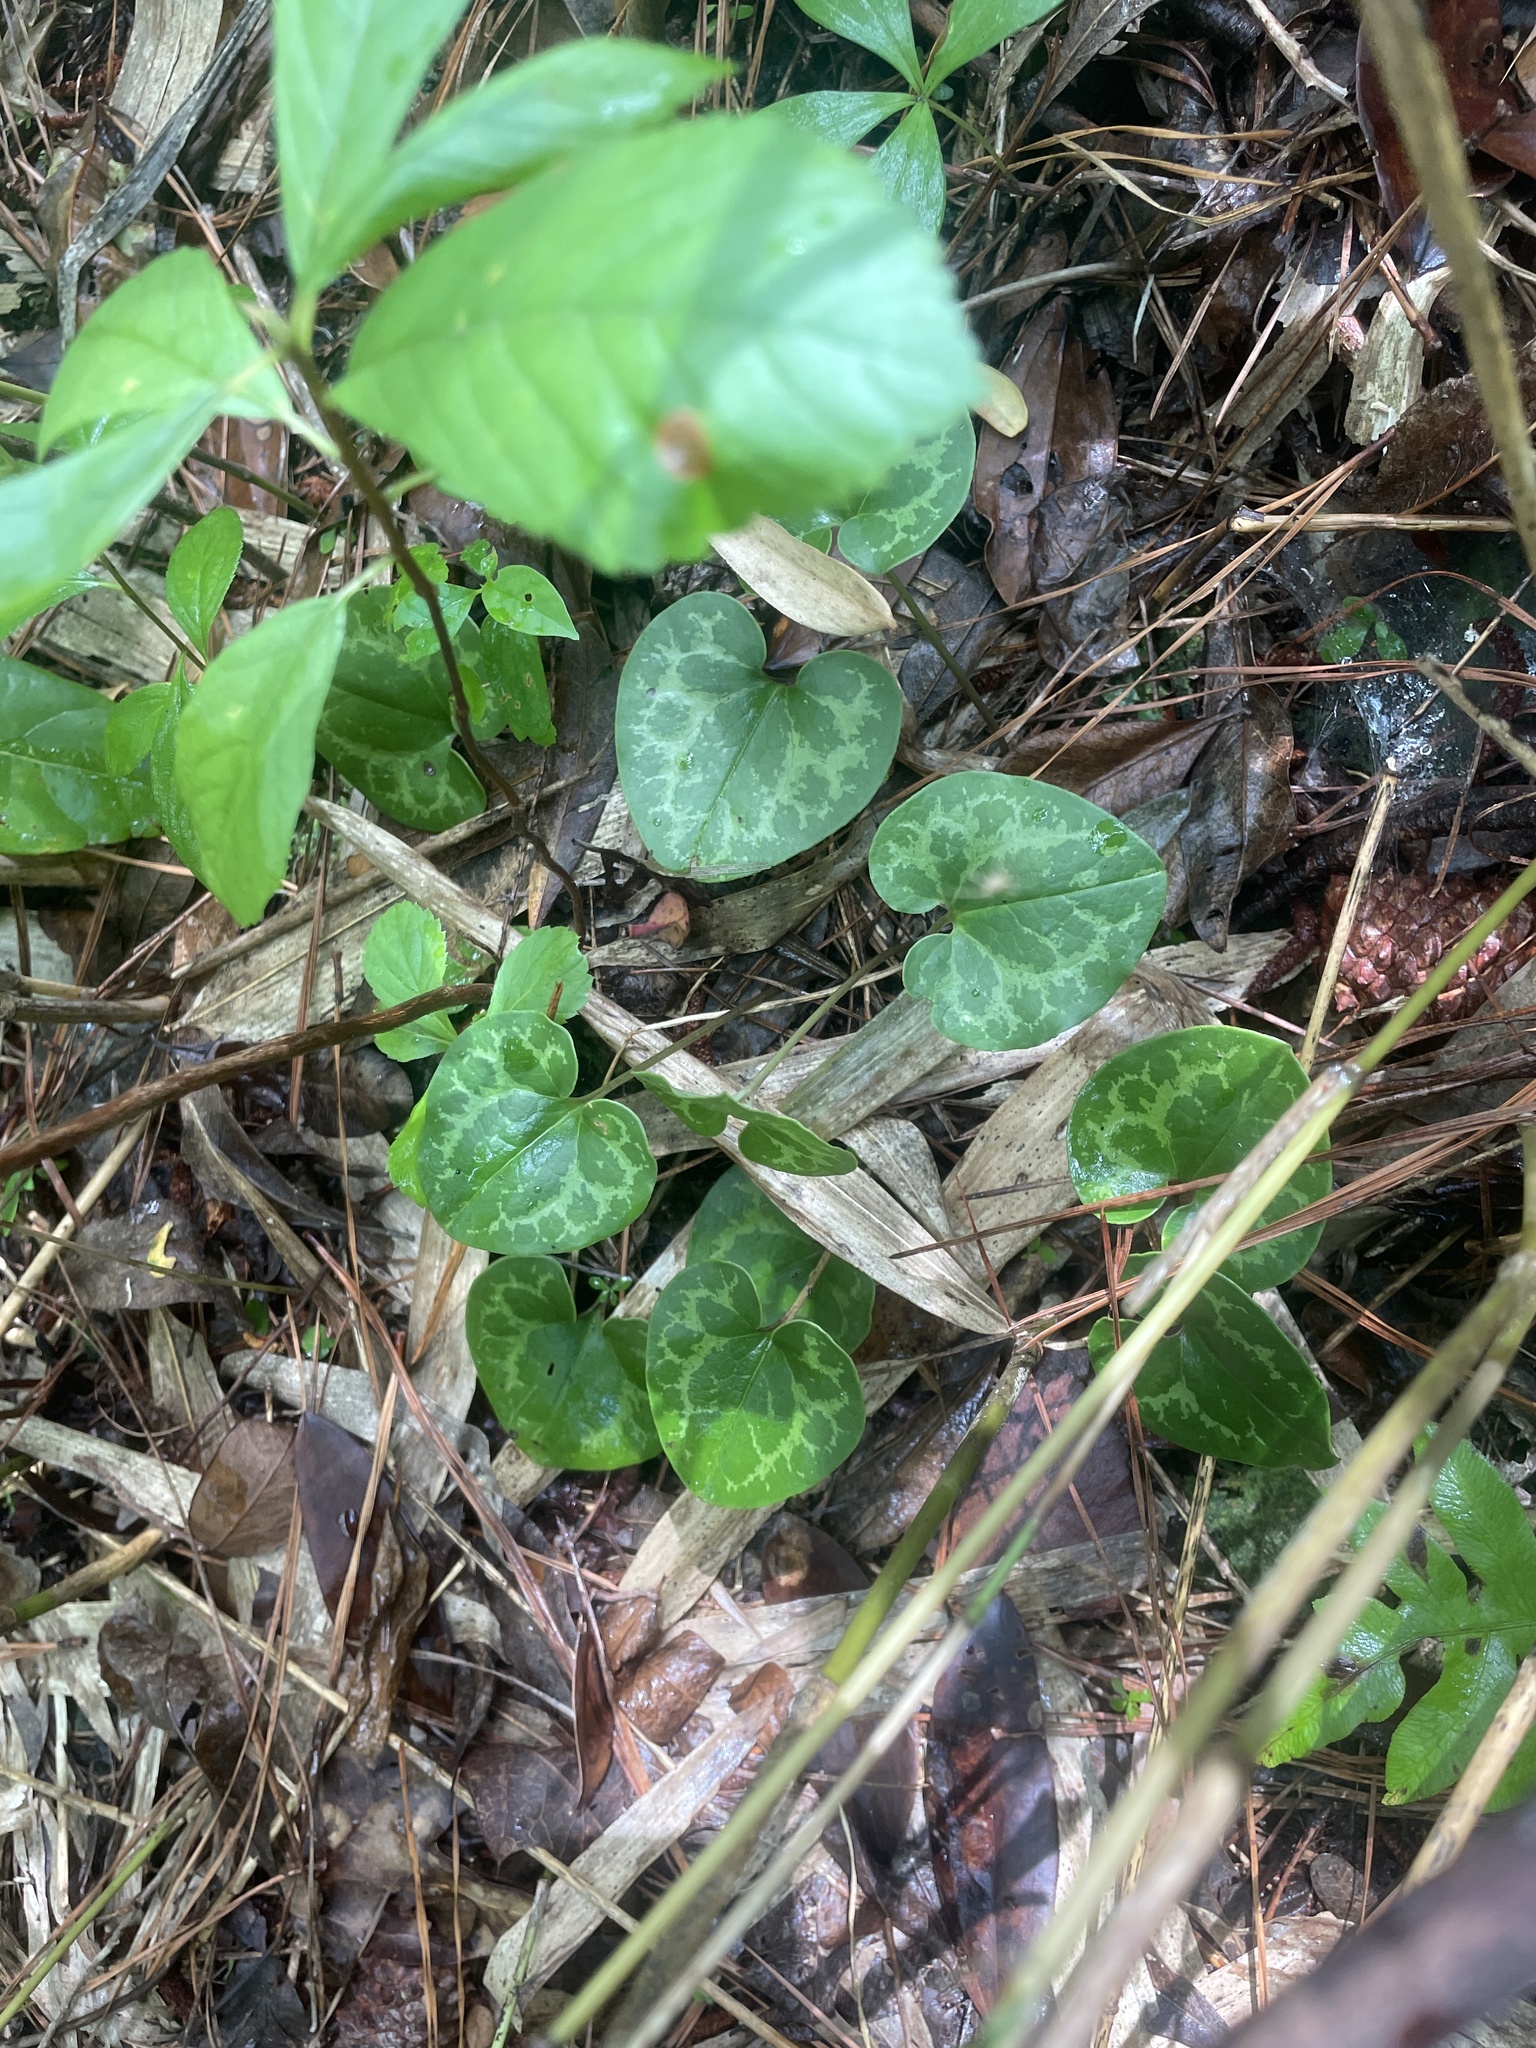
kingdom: Plantae
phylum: Tracheophyta
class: Magnoliopsida
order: Piperales
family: Aristolochiaceae
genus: Hexastylis
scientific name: Hexastylis sorriei
